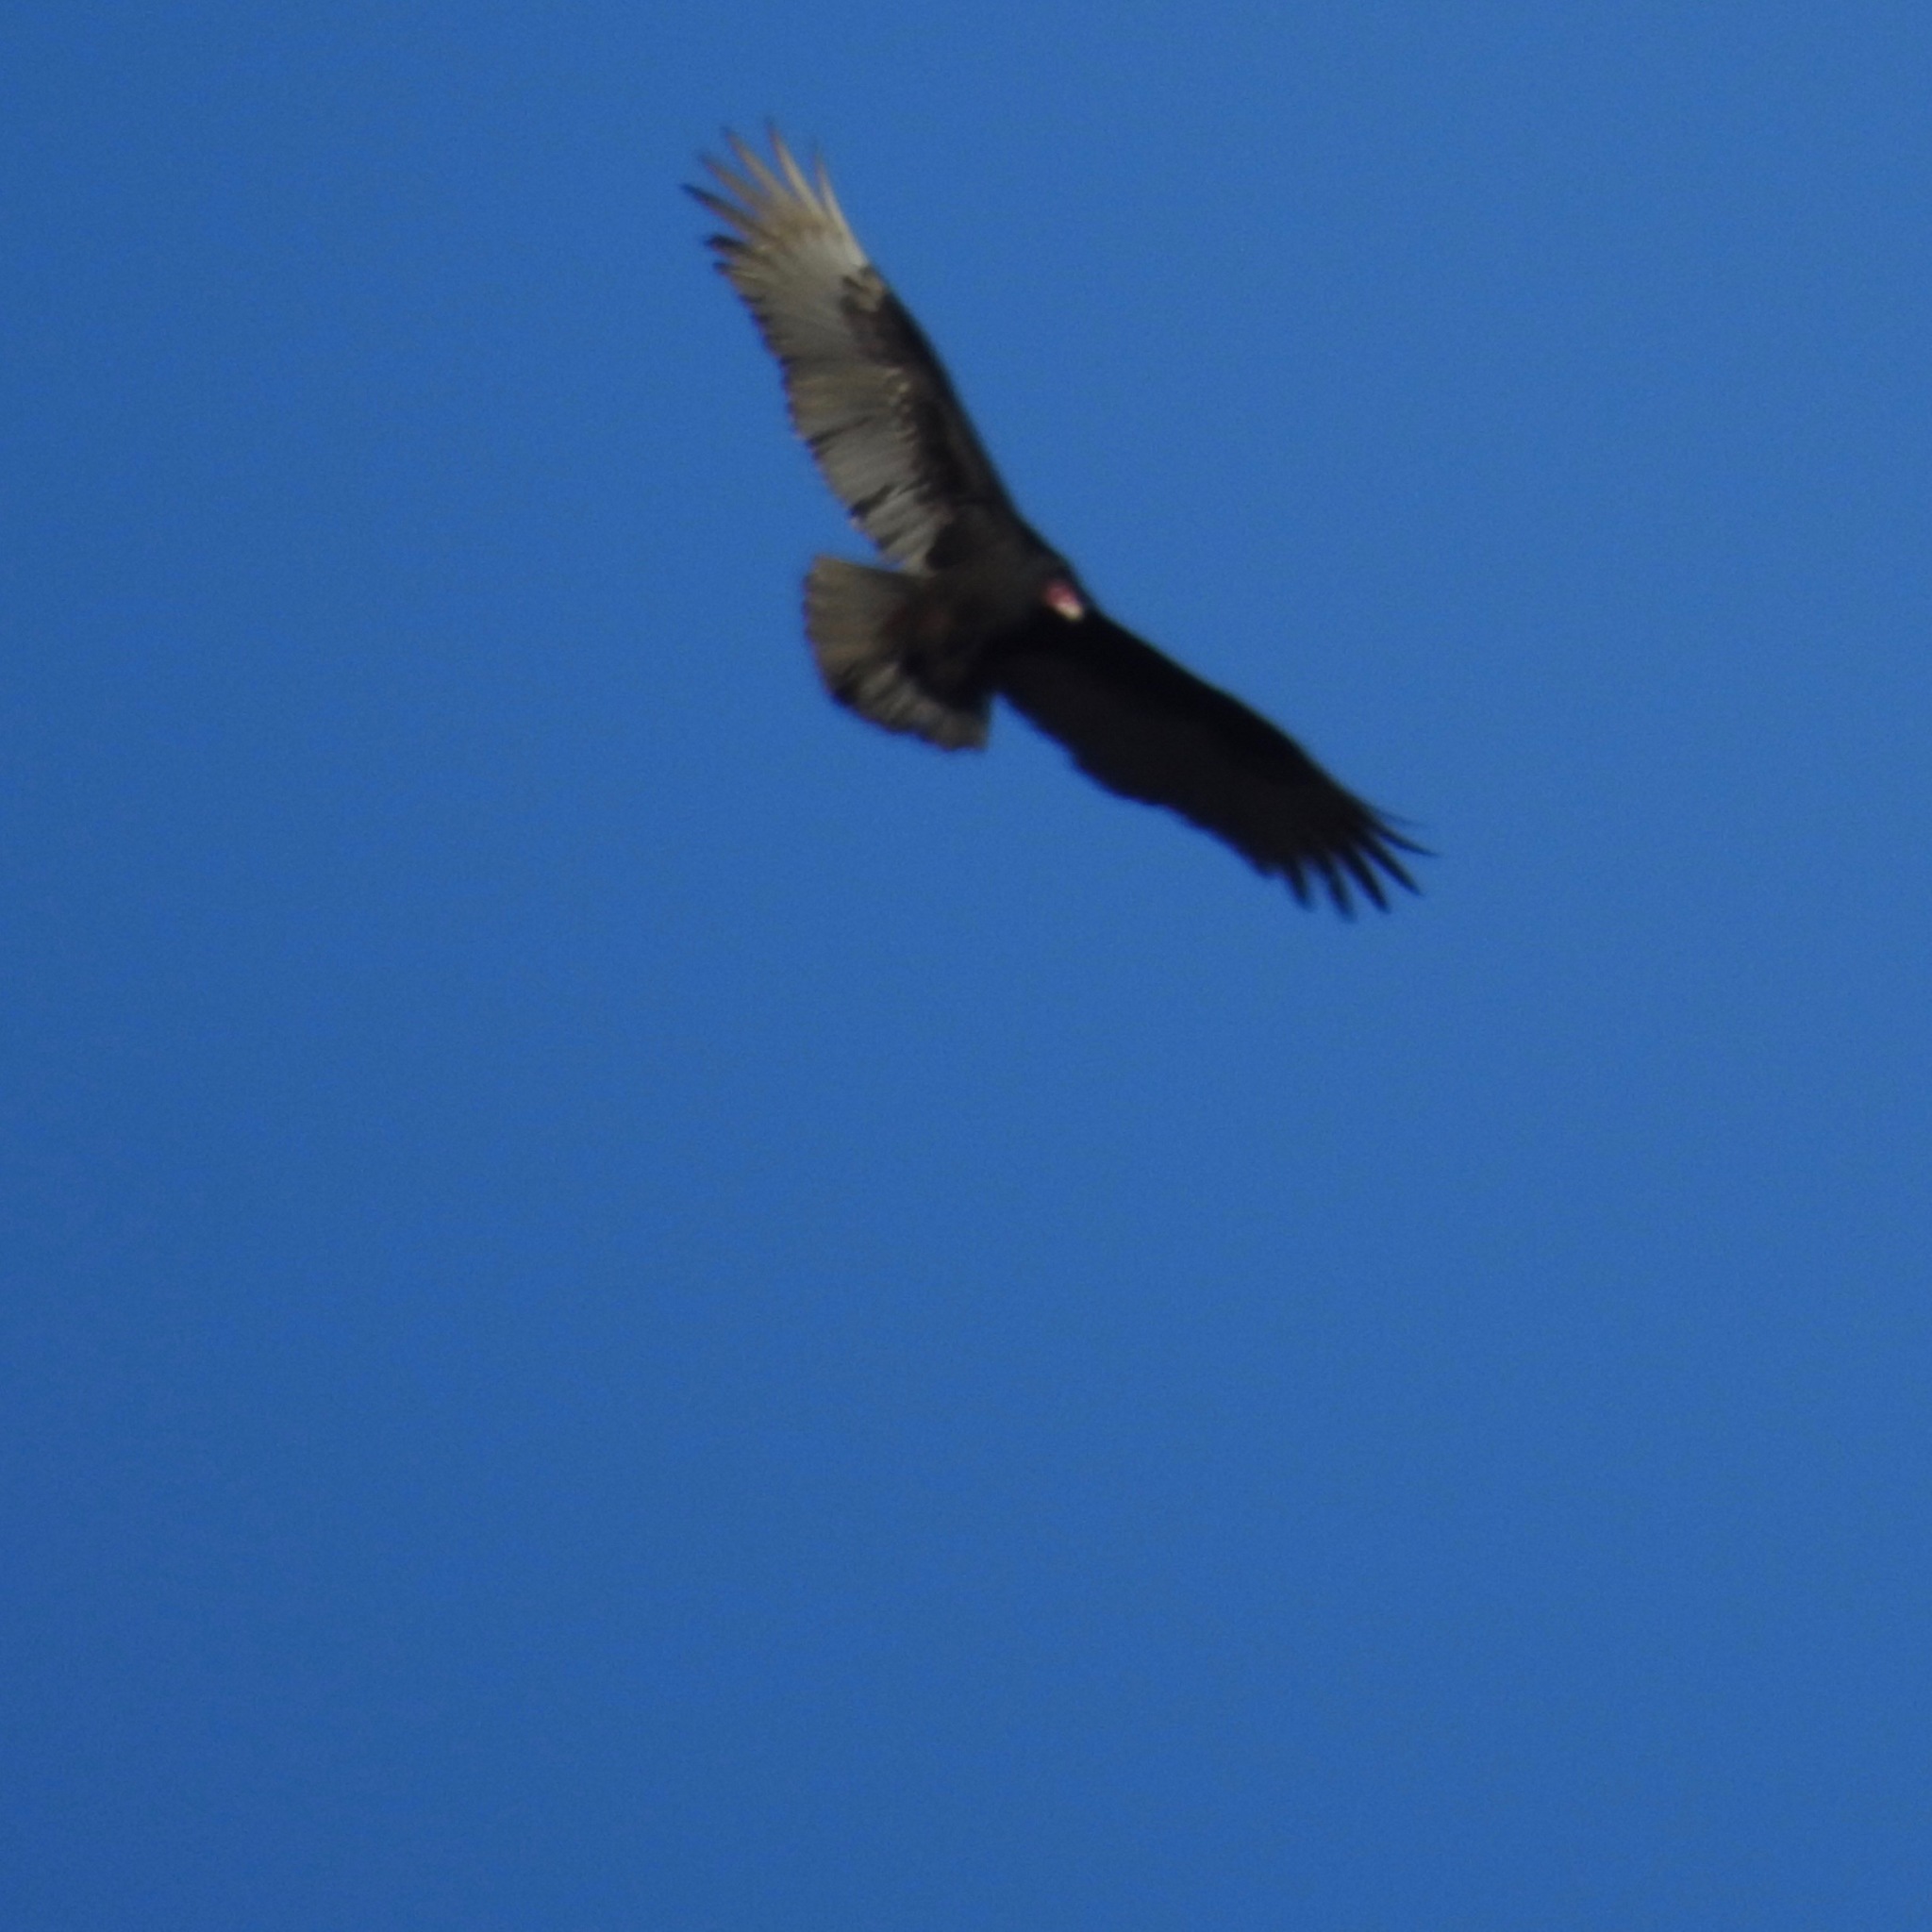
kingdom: Animalia
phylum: Chordata
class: Aves
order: Accipitriformes
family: Cathartidae
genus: Cathartes
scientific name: Cathartes aura
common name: Turkey vulture
